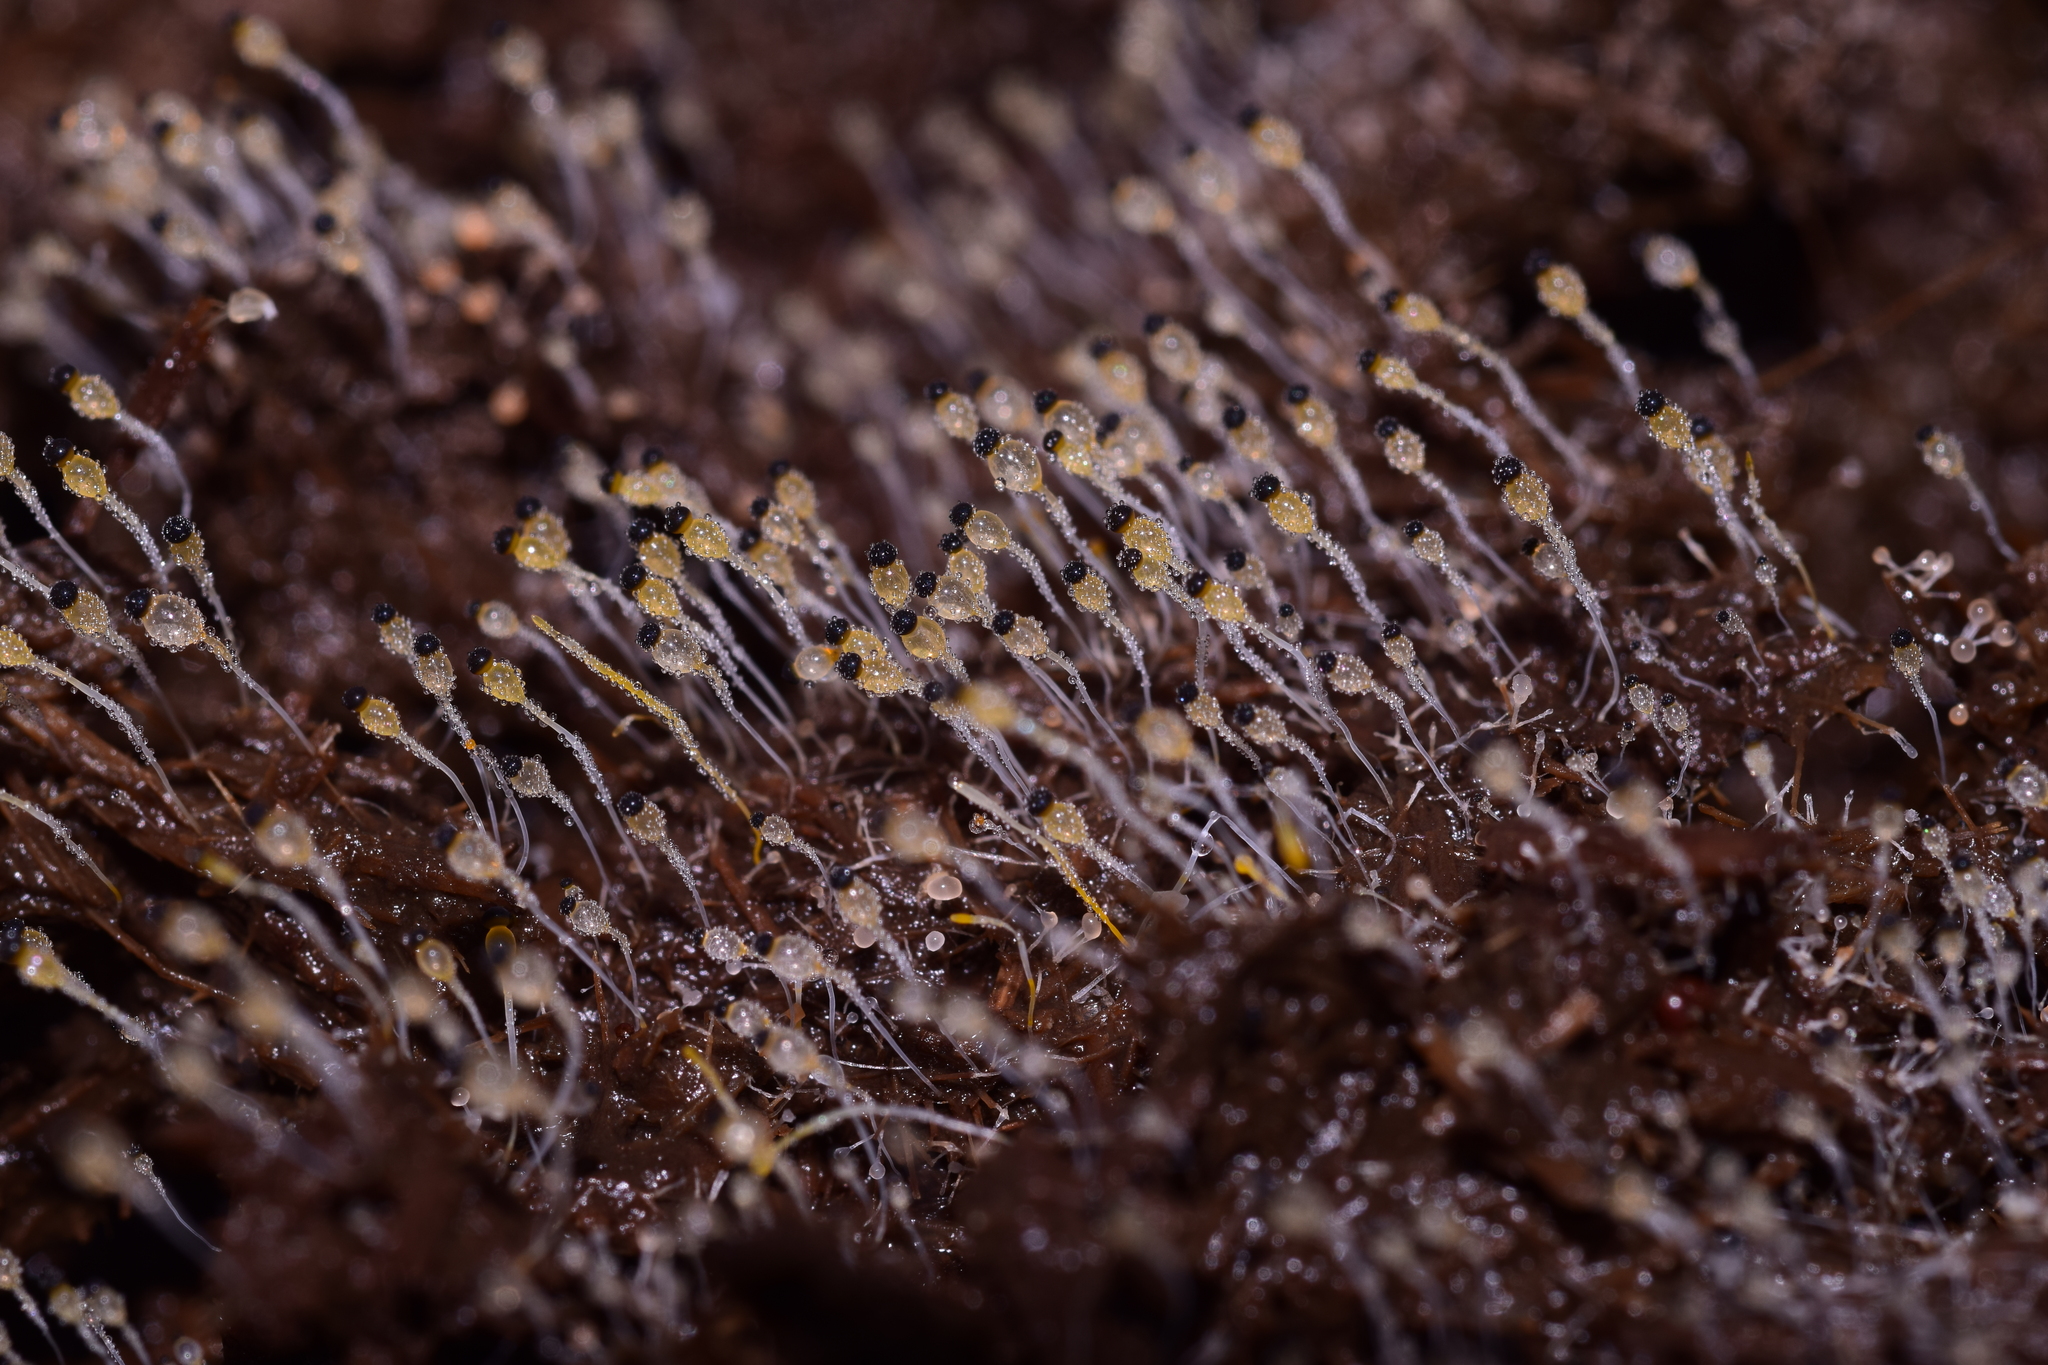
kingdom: Fungi
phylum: Mucoromycota
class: Mucoromycetes
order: Mucorales
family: Pilobolaceae
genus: Pilobolus
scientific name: Pilobolus
